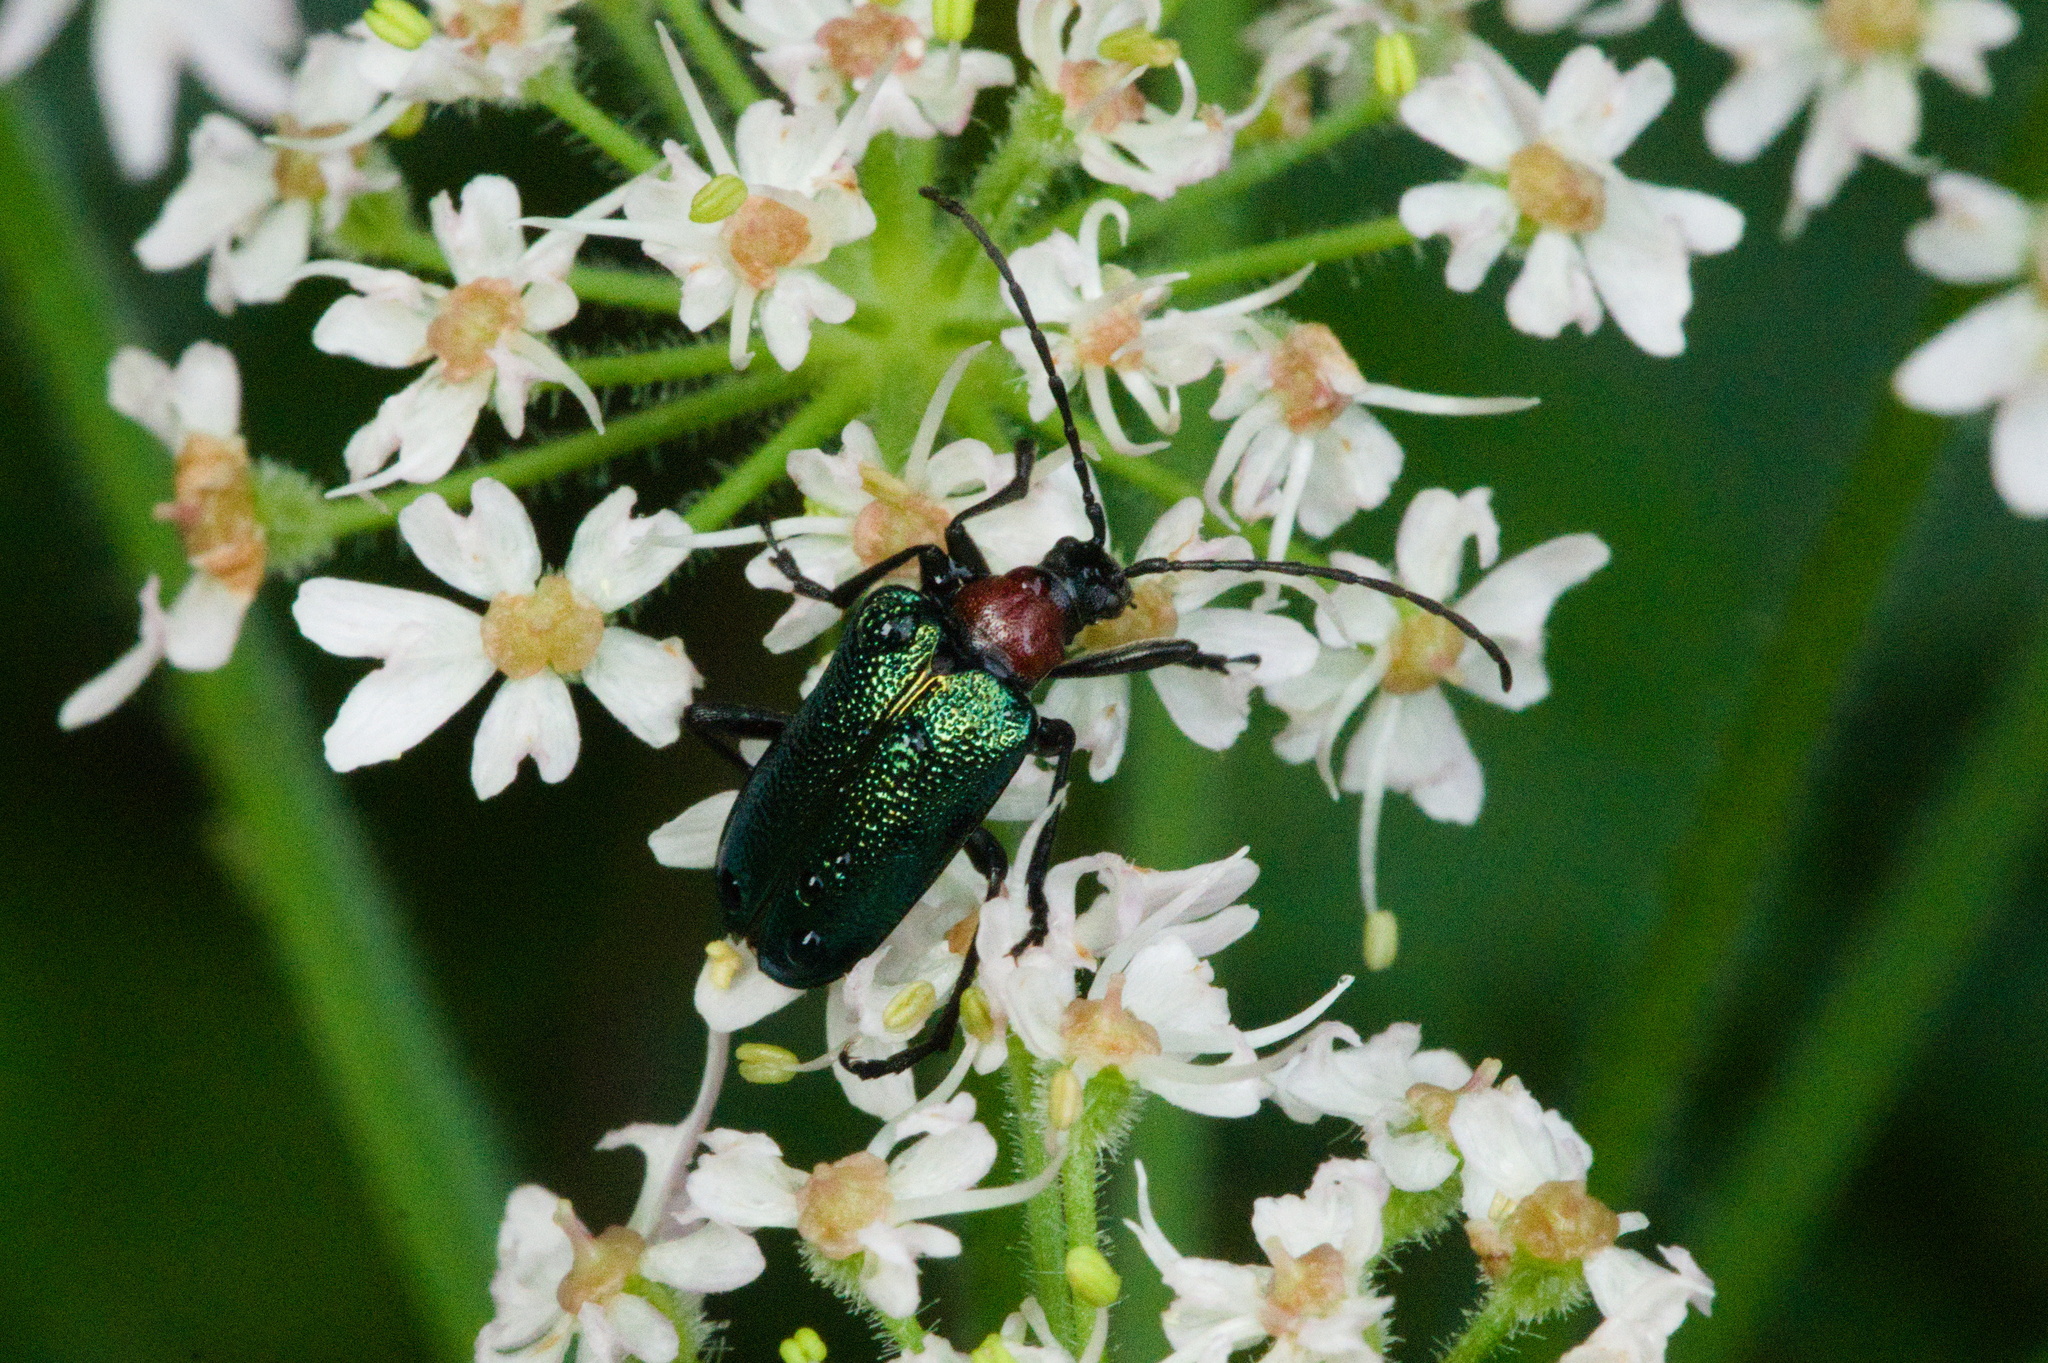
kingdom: Animalia
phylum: Arthropoda
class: Insecta
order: Coleoptera
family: Cerambycidae
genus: Gaurotes
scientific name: Gaurotes virginea
